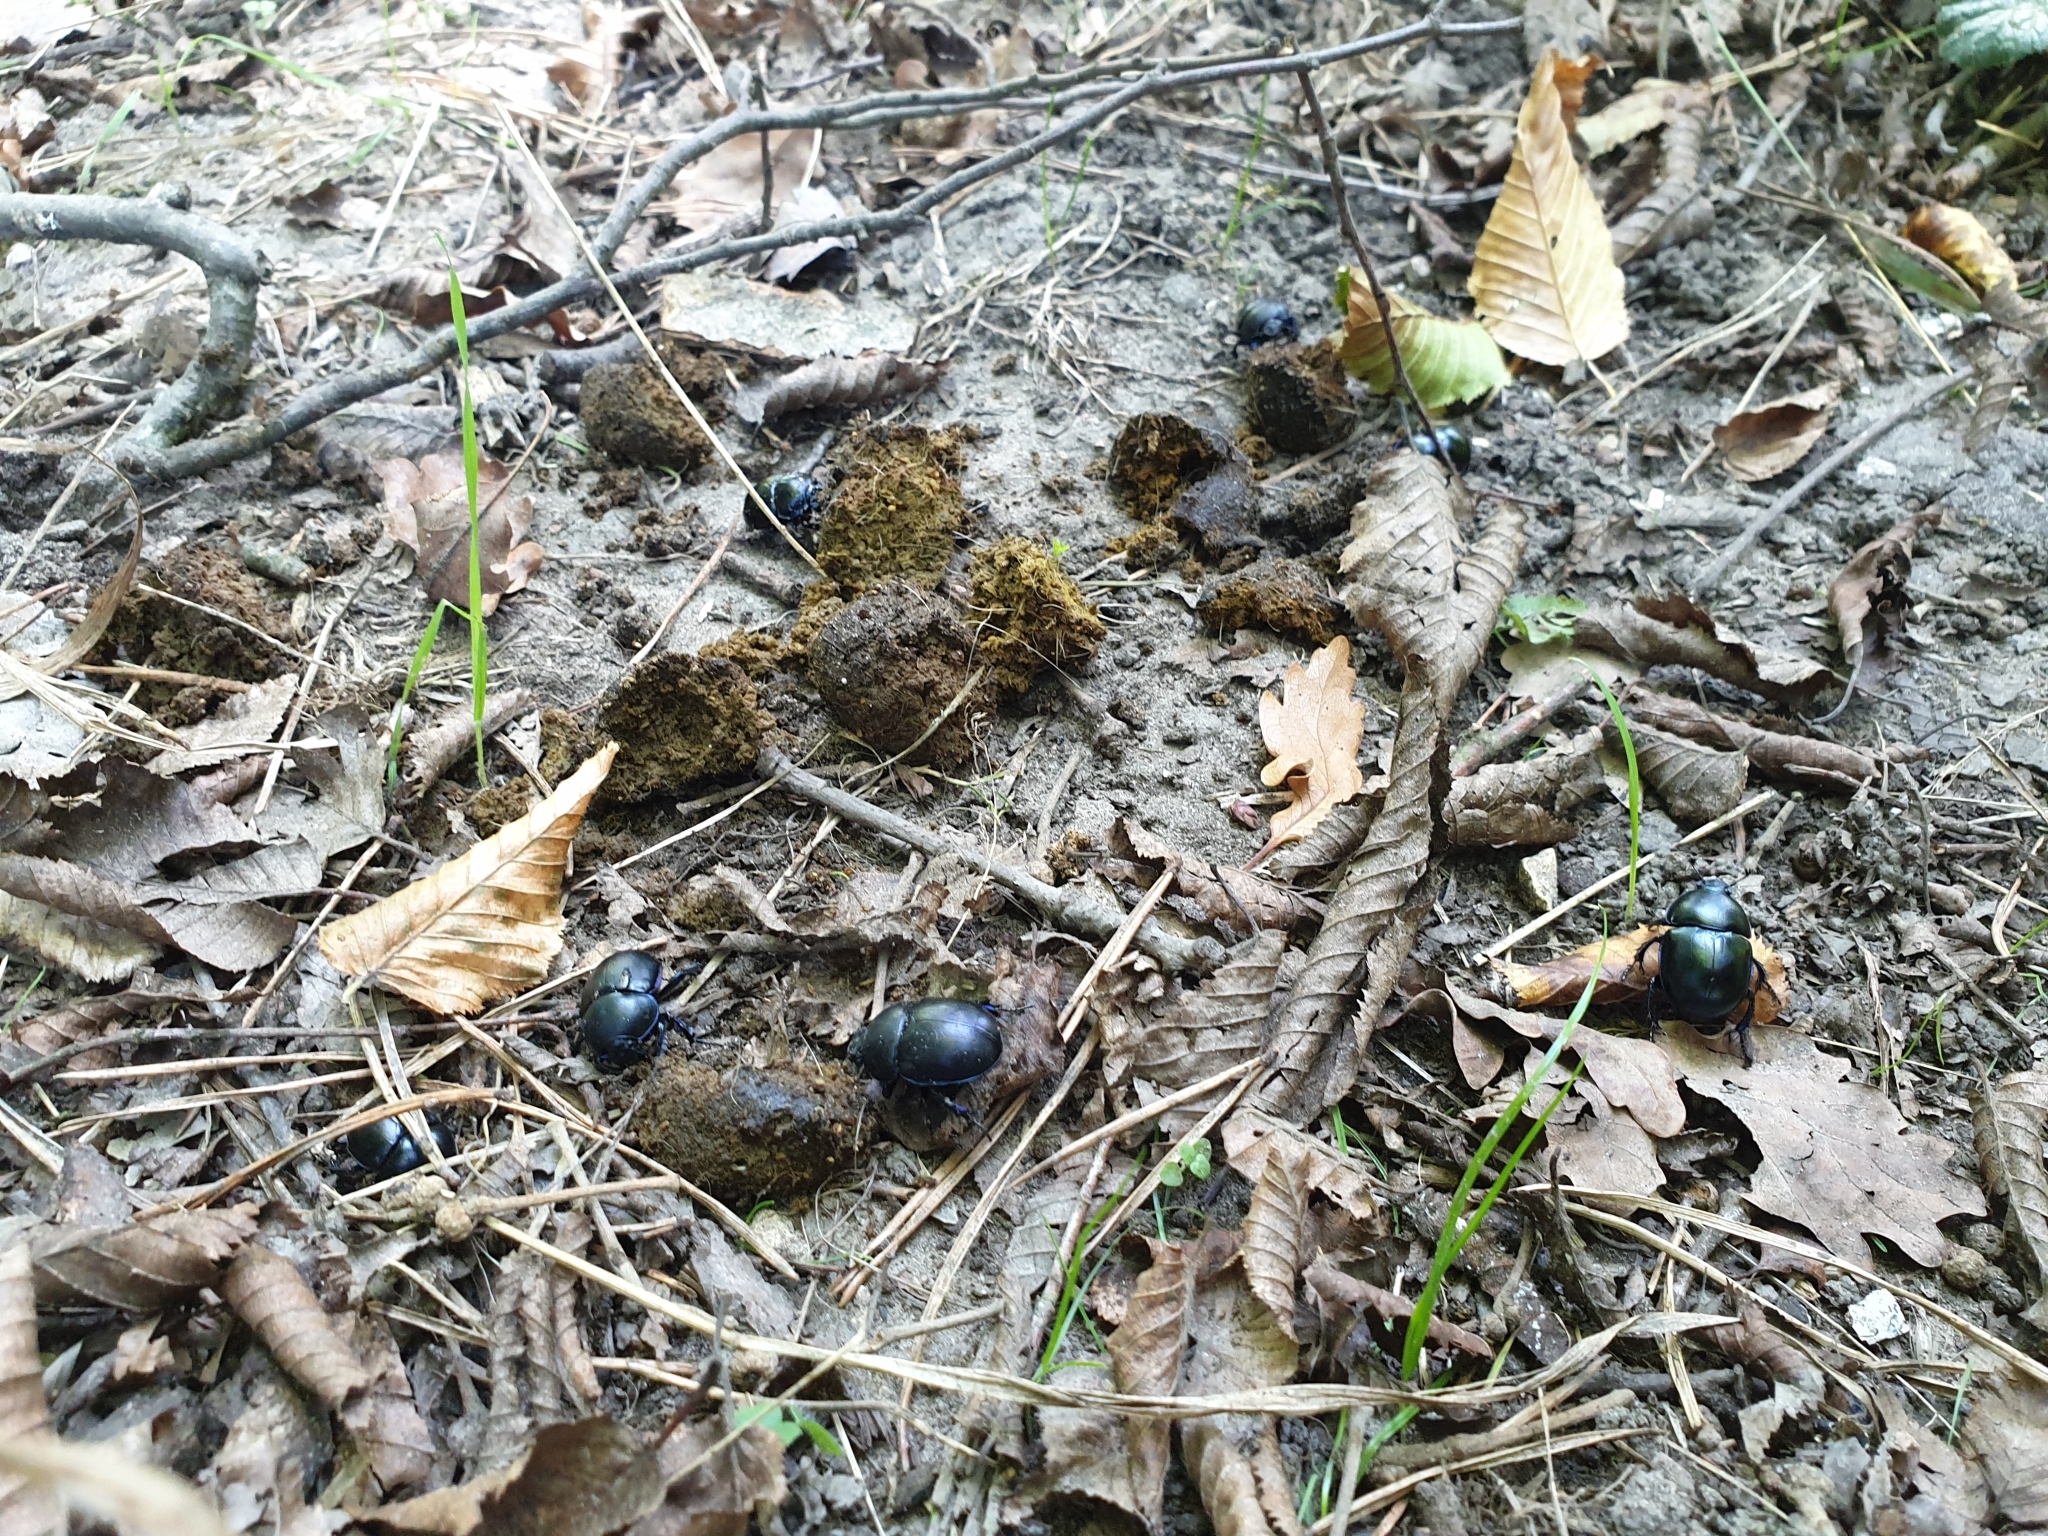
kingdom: Animalia
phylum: Arthropoda
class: Insecta
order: Coleoptera
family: Geotrupidae
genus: Trypocopris
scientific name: Trypocopris vernalis
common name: Spring dumbledor
